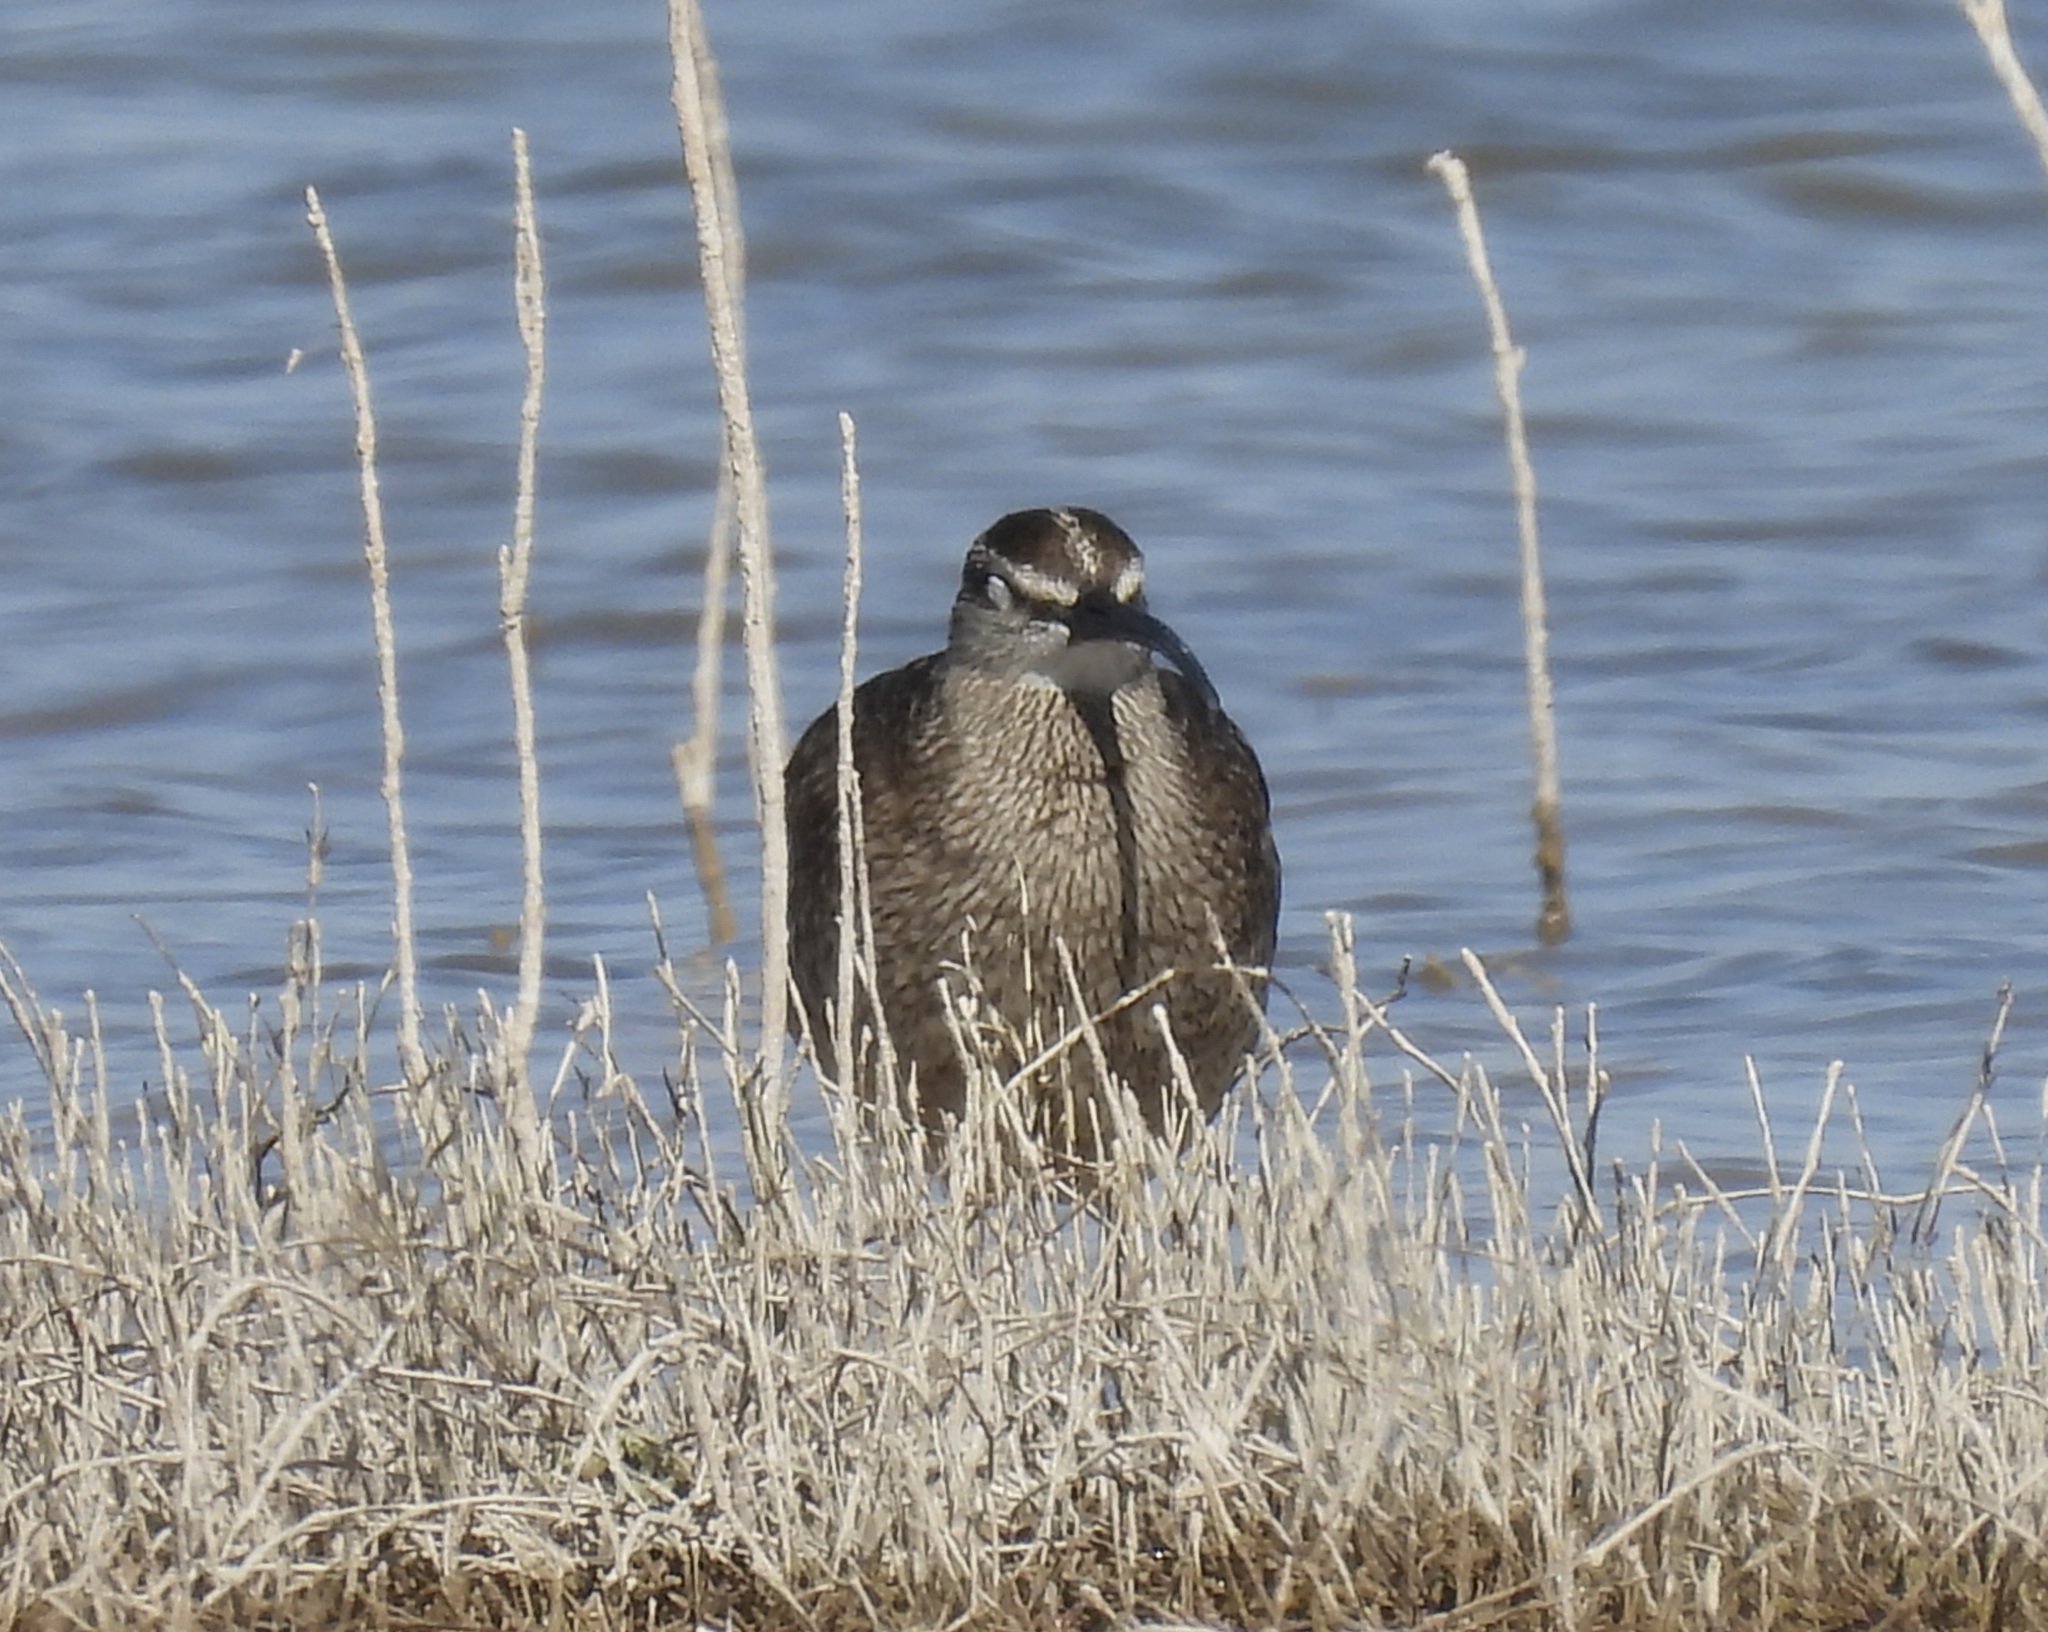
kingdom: Animalia
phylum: Chordata
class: Aves
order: Charadriiformes
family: Scolopacidae
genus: Numenius
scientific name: Numenius phaeopus
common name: Whimbrel
